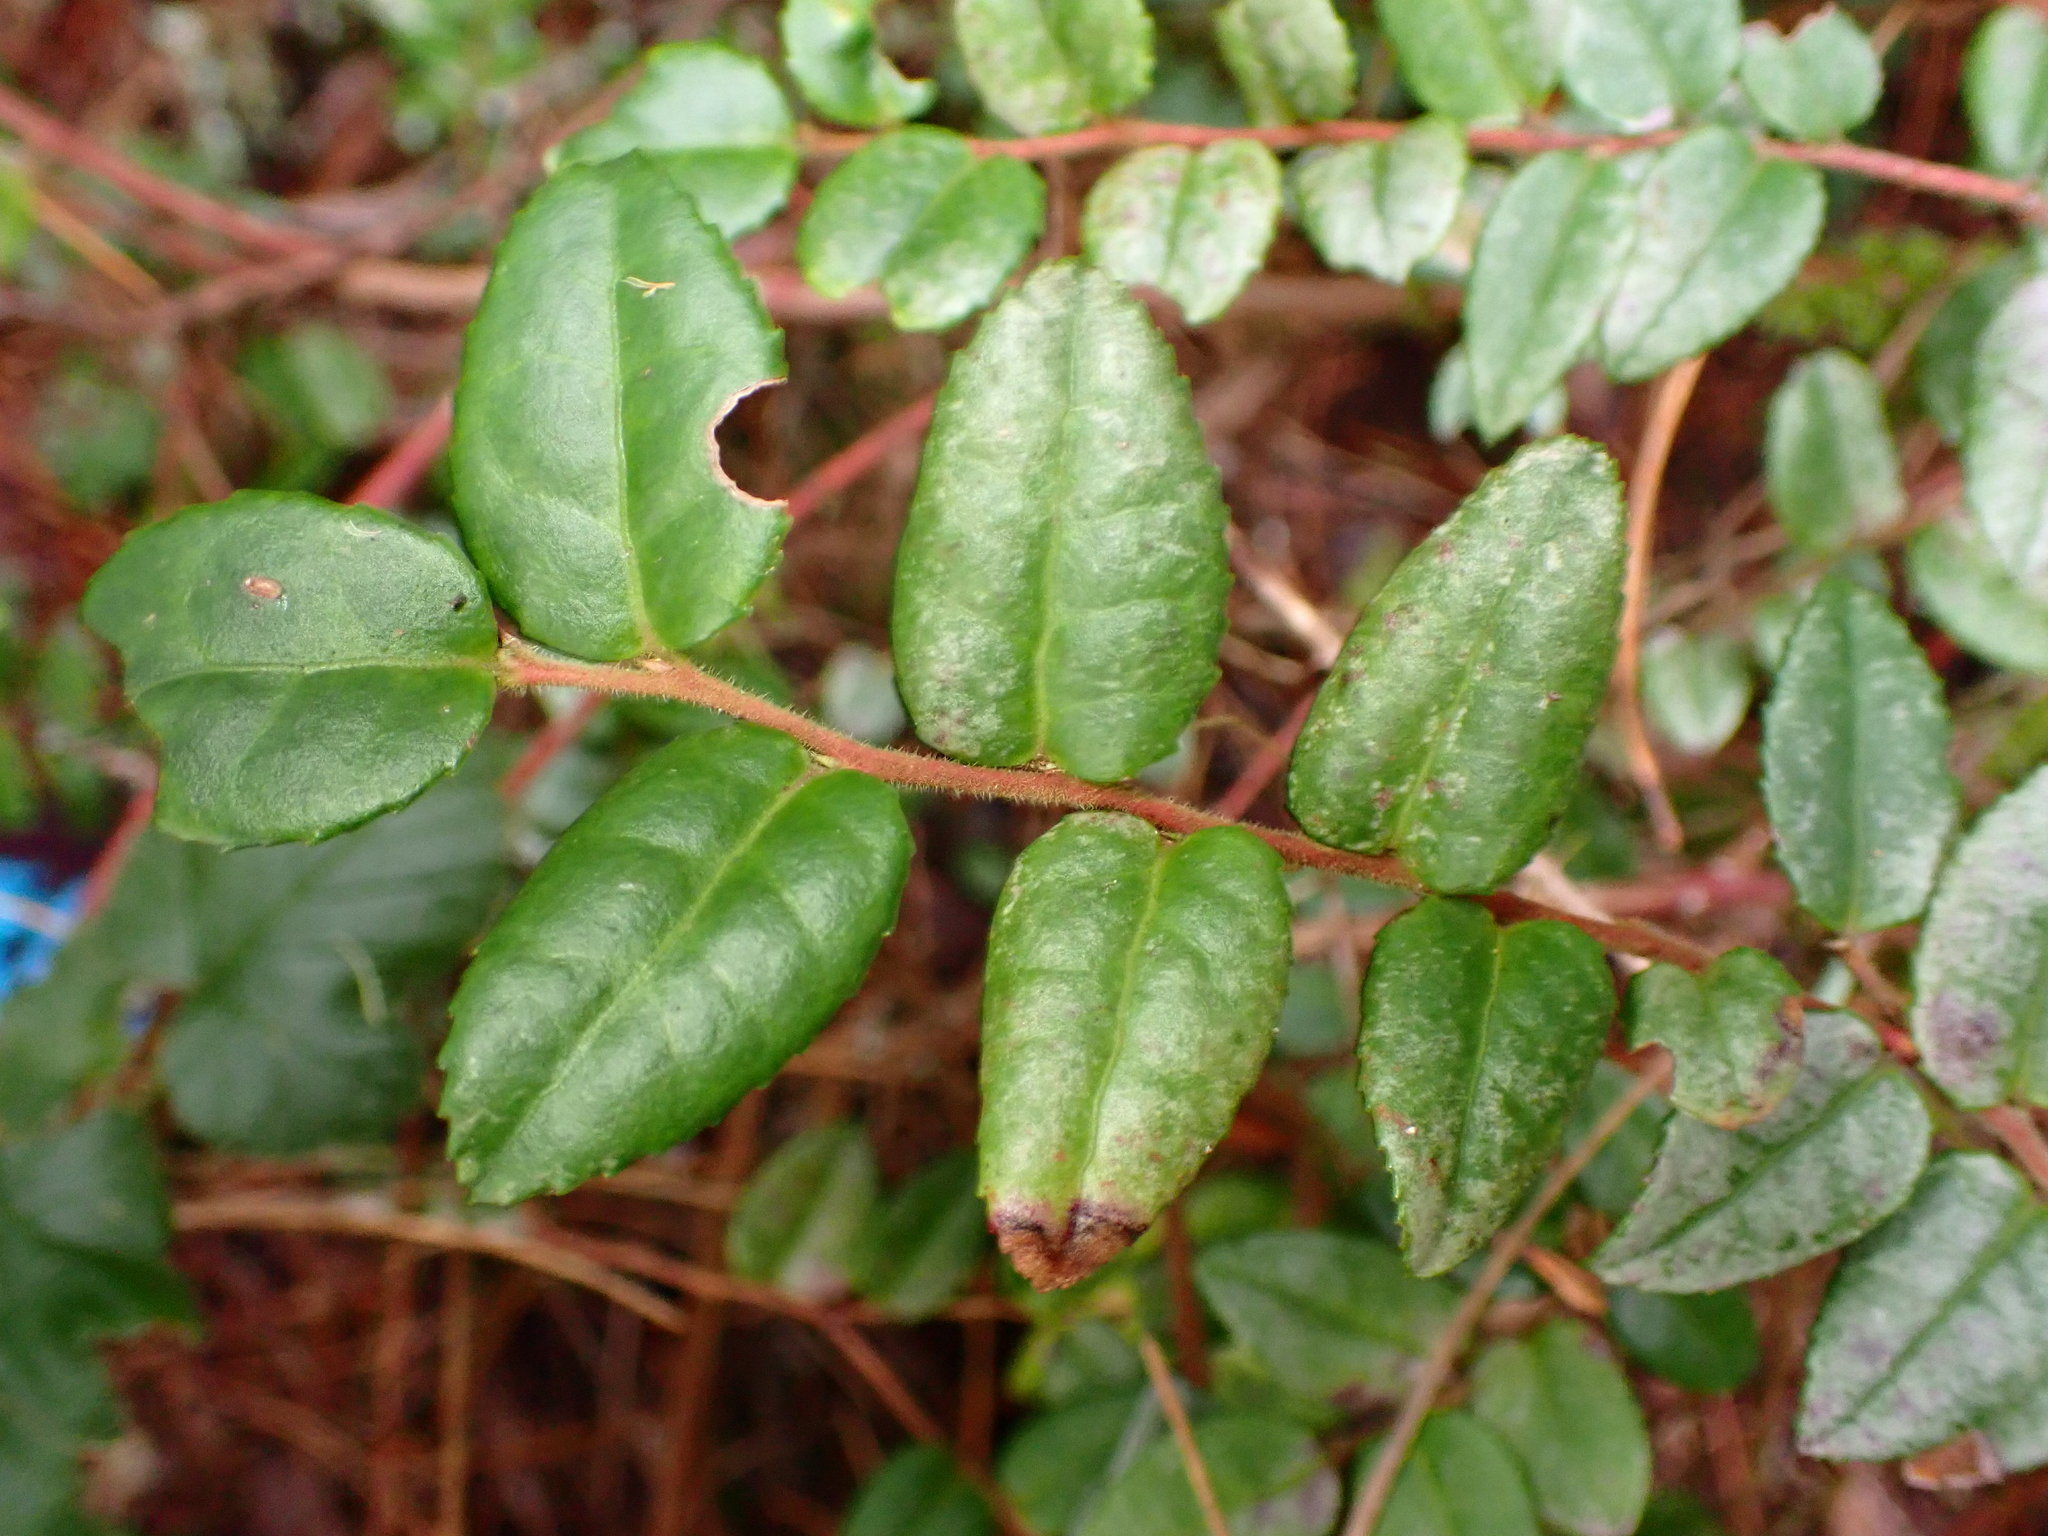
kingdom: Plantae
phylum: Tracheophyta
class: Magnoliopsida
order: Ericales
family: Ericaceae
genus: Vaccinium
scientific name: Vaccinium ovatum
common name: California-huckleberry
